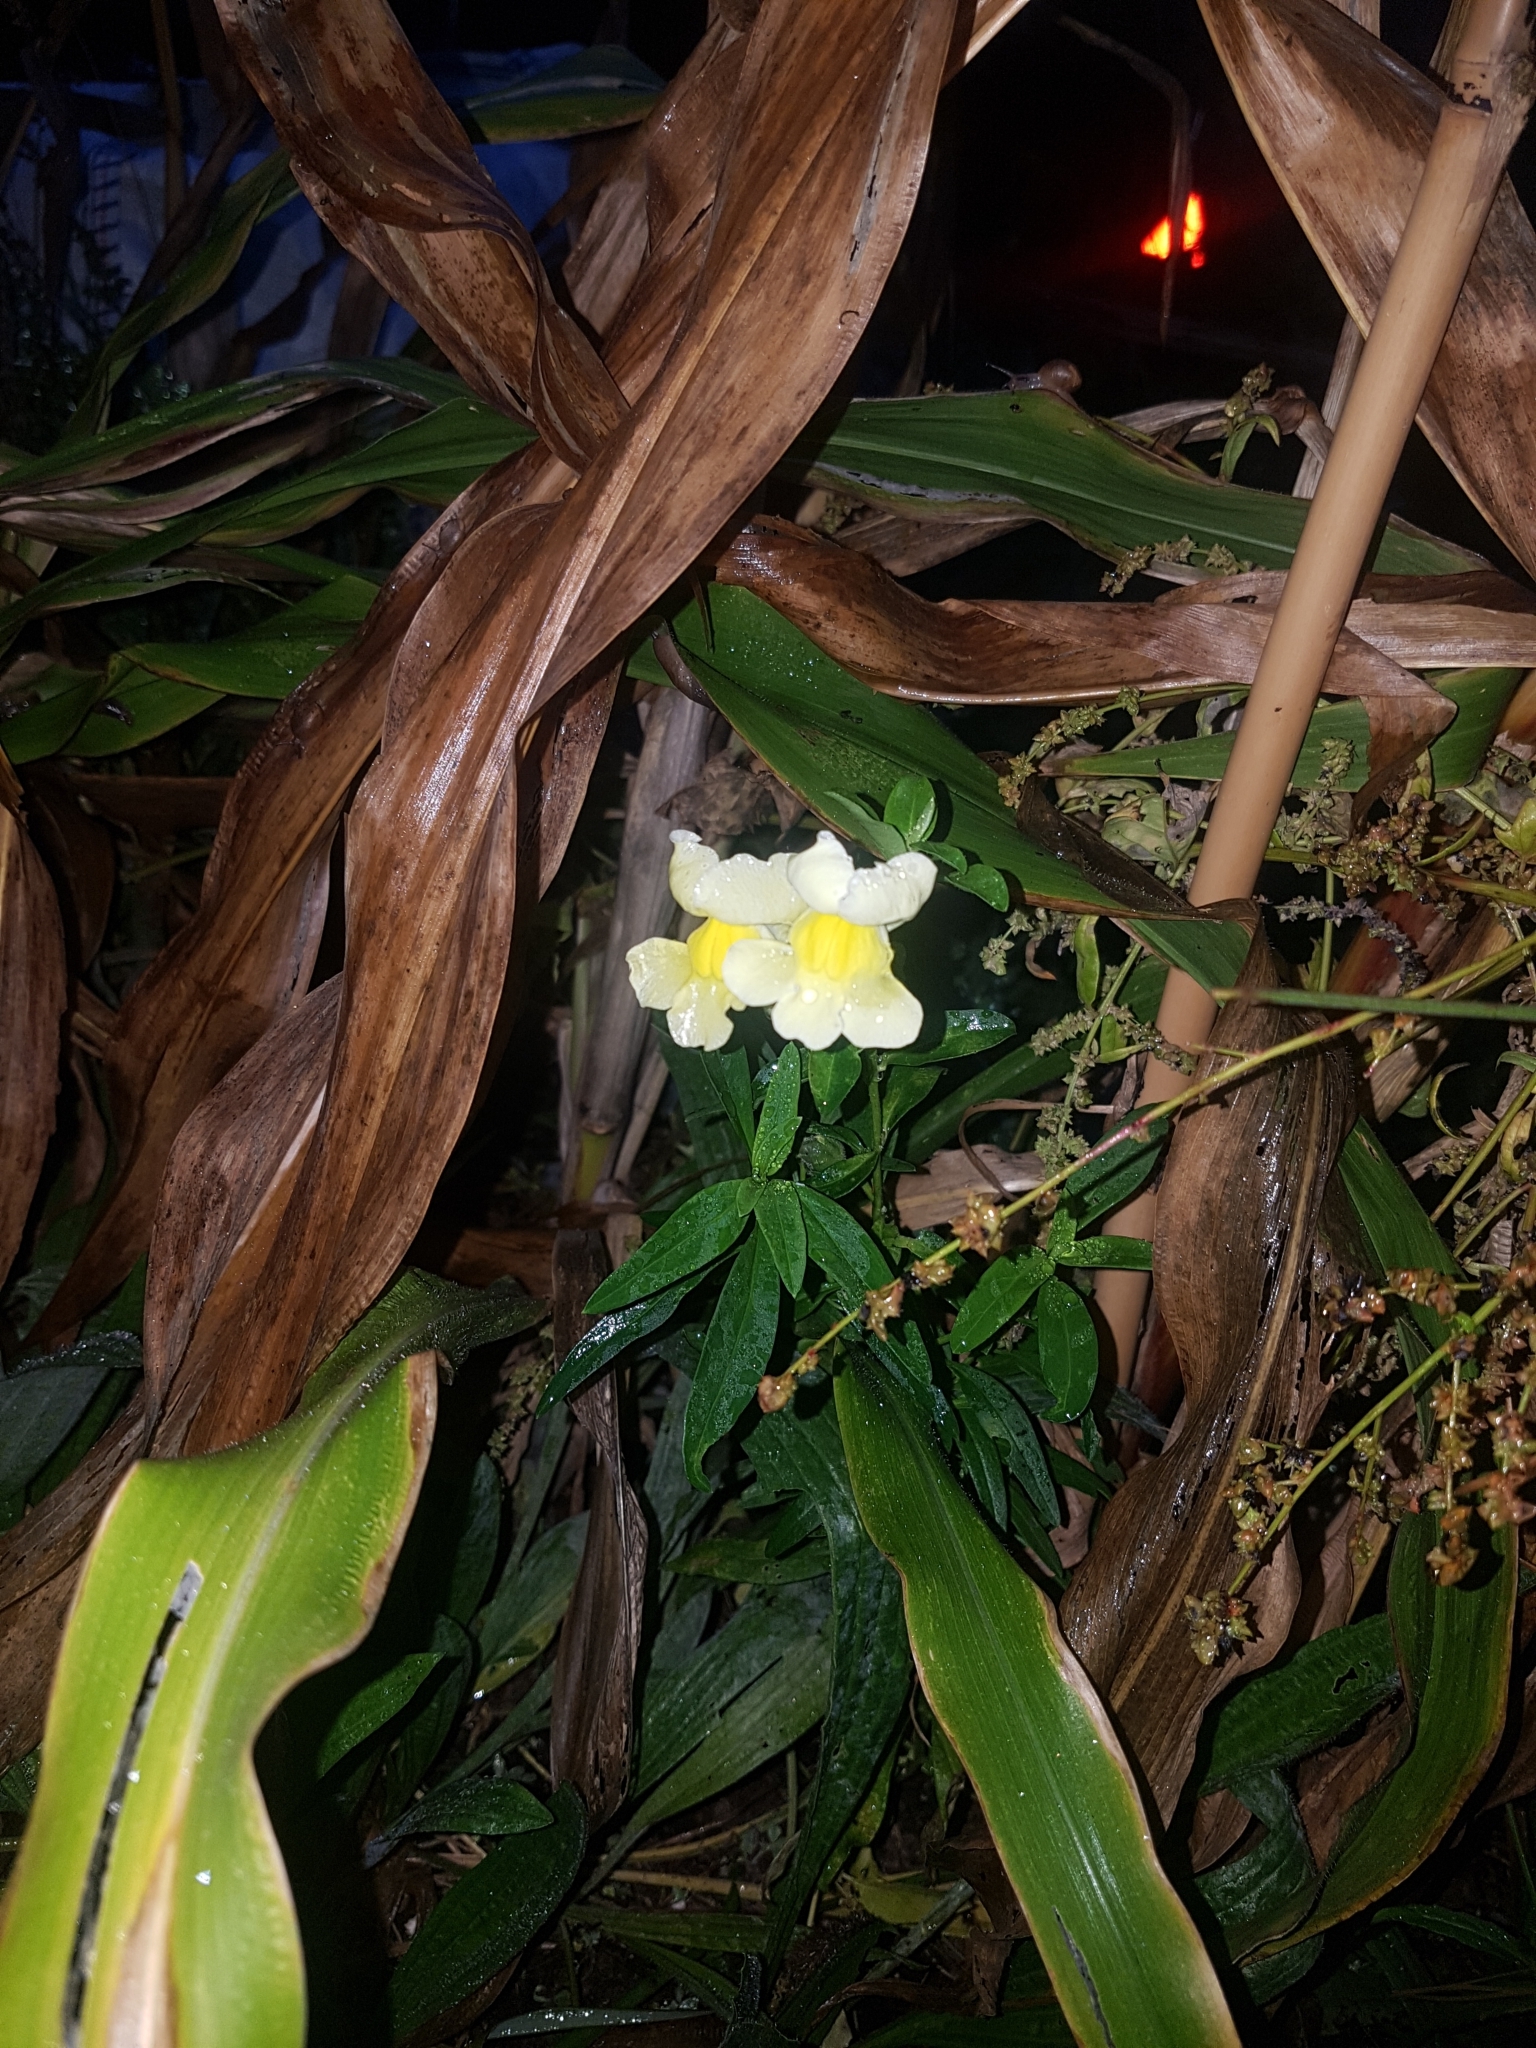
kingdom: Plantae
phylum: Tracheophyta
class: Magnoliopsida
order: Lamiales
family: Plantaginaceae
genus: Antirrhinum
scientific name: Antirrhinum majus
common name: Snapdragon
